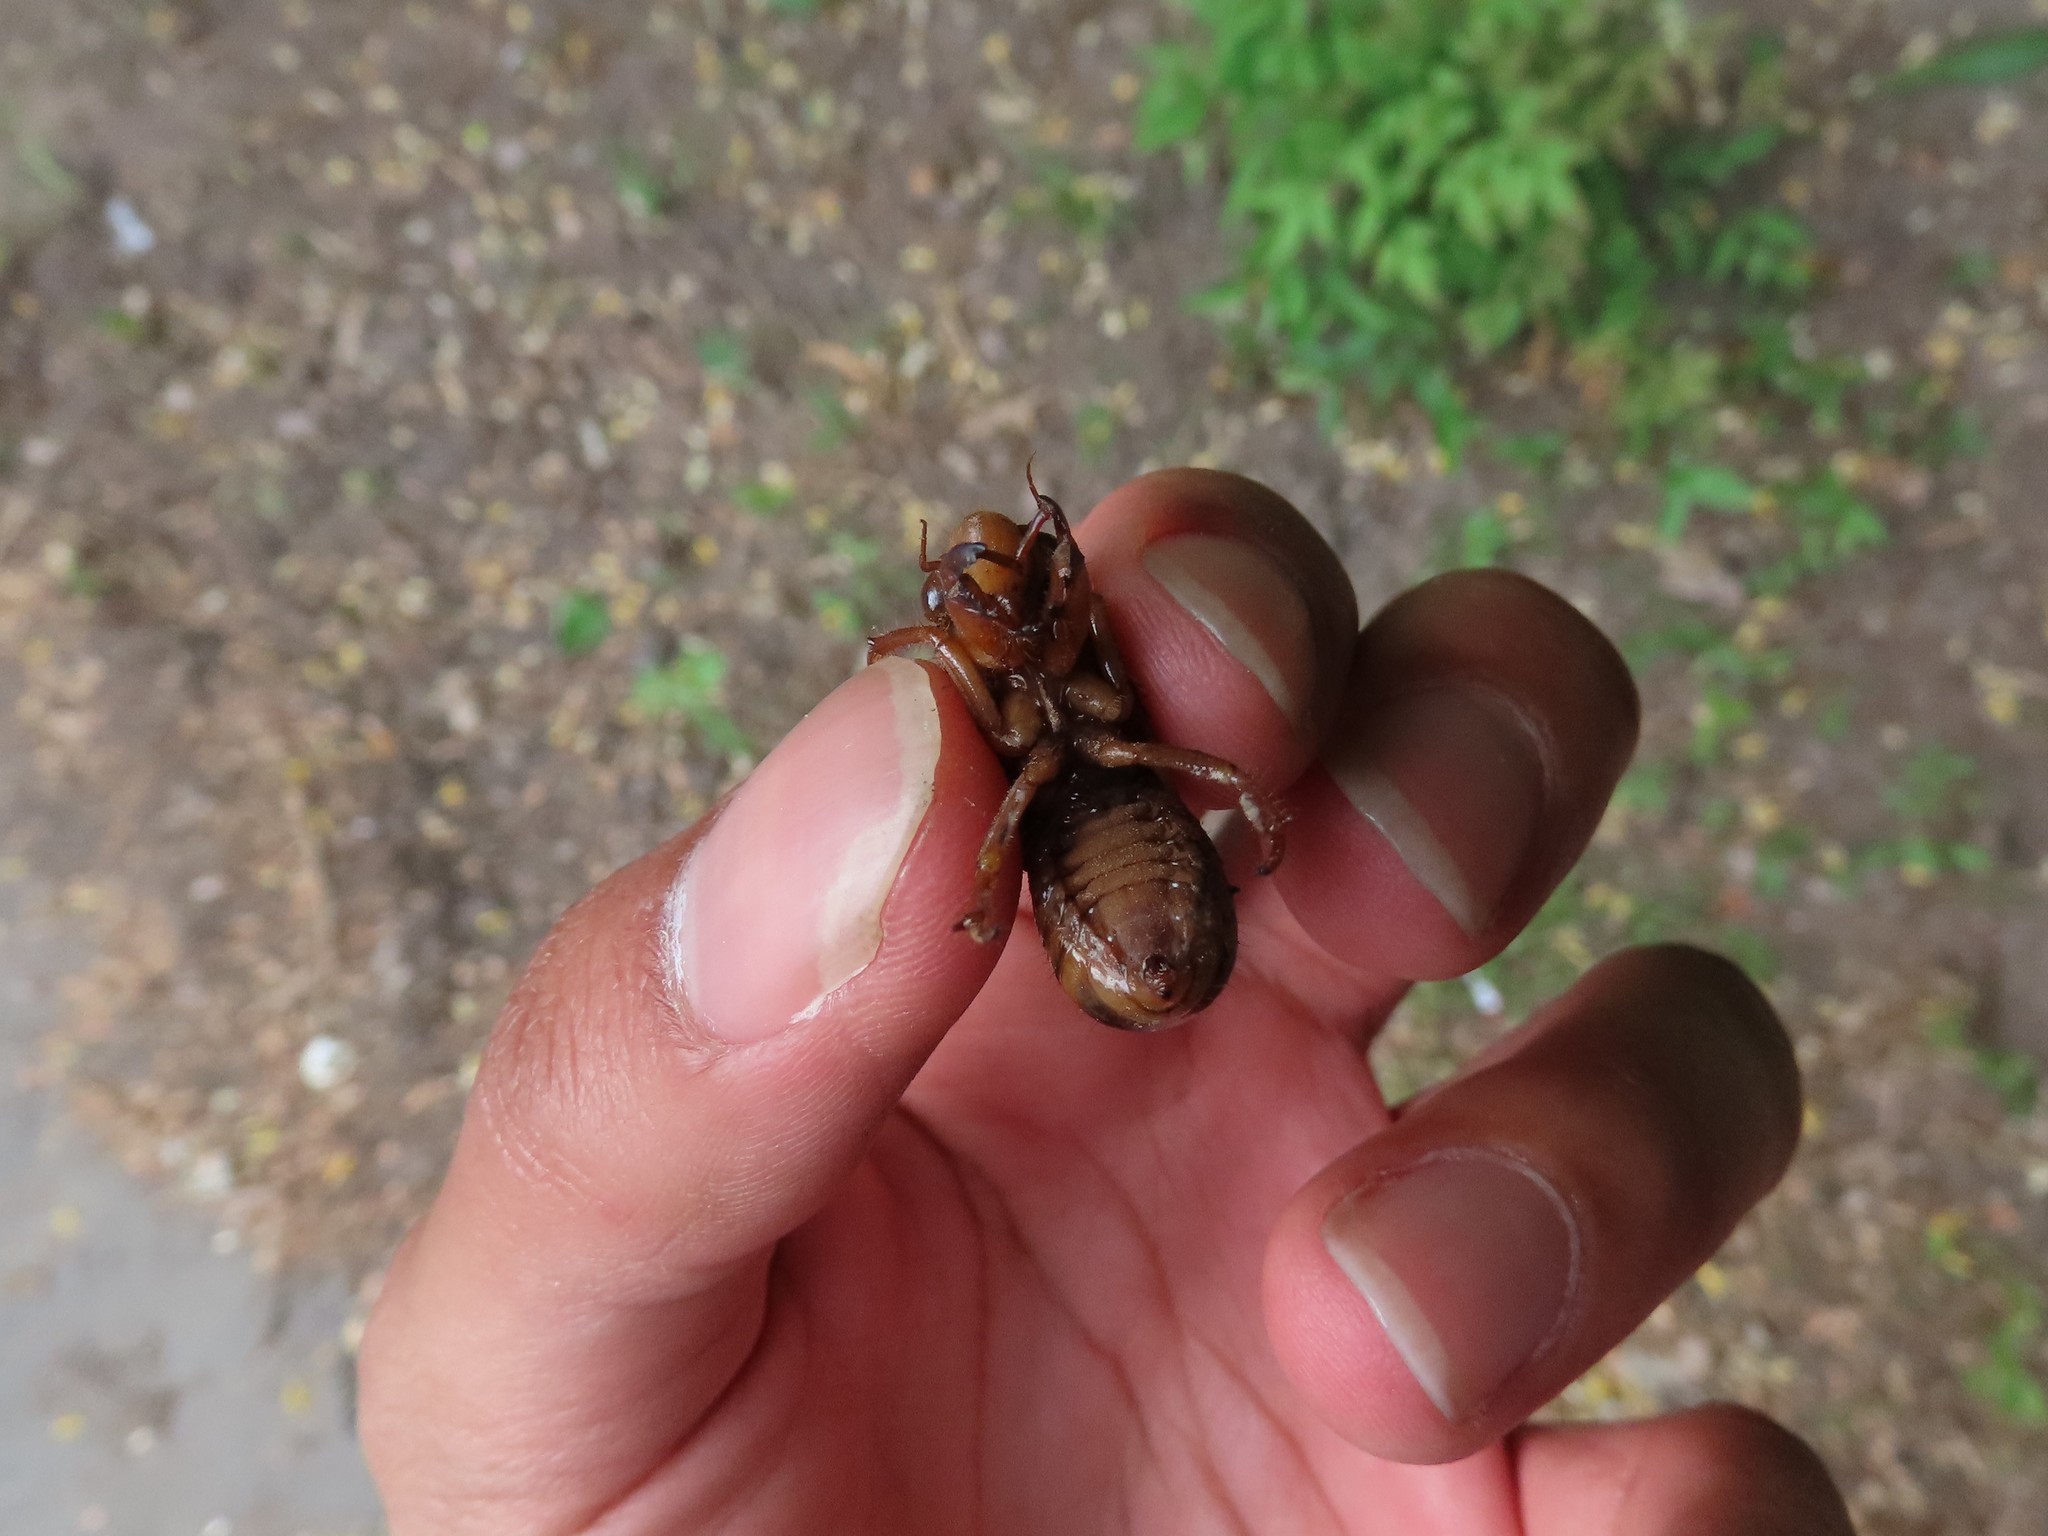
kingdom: Animalia
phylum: Arthropoda
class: Insecta
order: Hemiptera
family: Cicadidae
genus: Magicicada
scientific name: Magicicada
